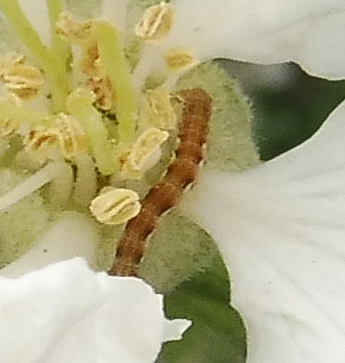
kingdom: Animalia
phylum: Arthropoda
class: Insecta
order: Lepidoptera
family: Geometridae
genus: Erannis
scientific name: Erannis defoliaria
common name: Mottled umber
